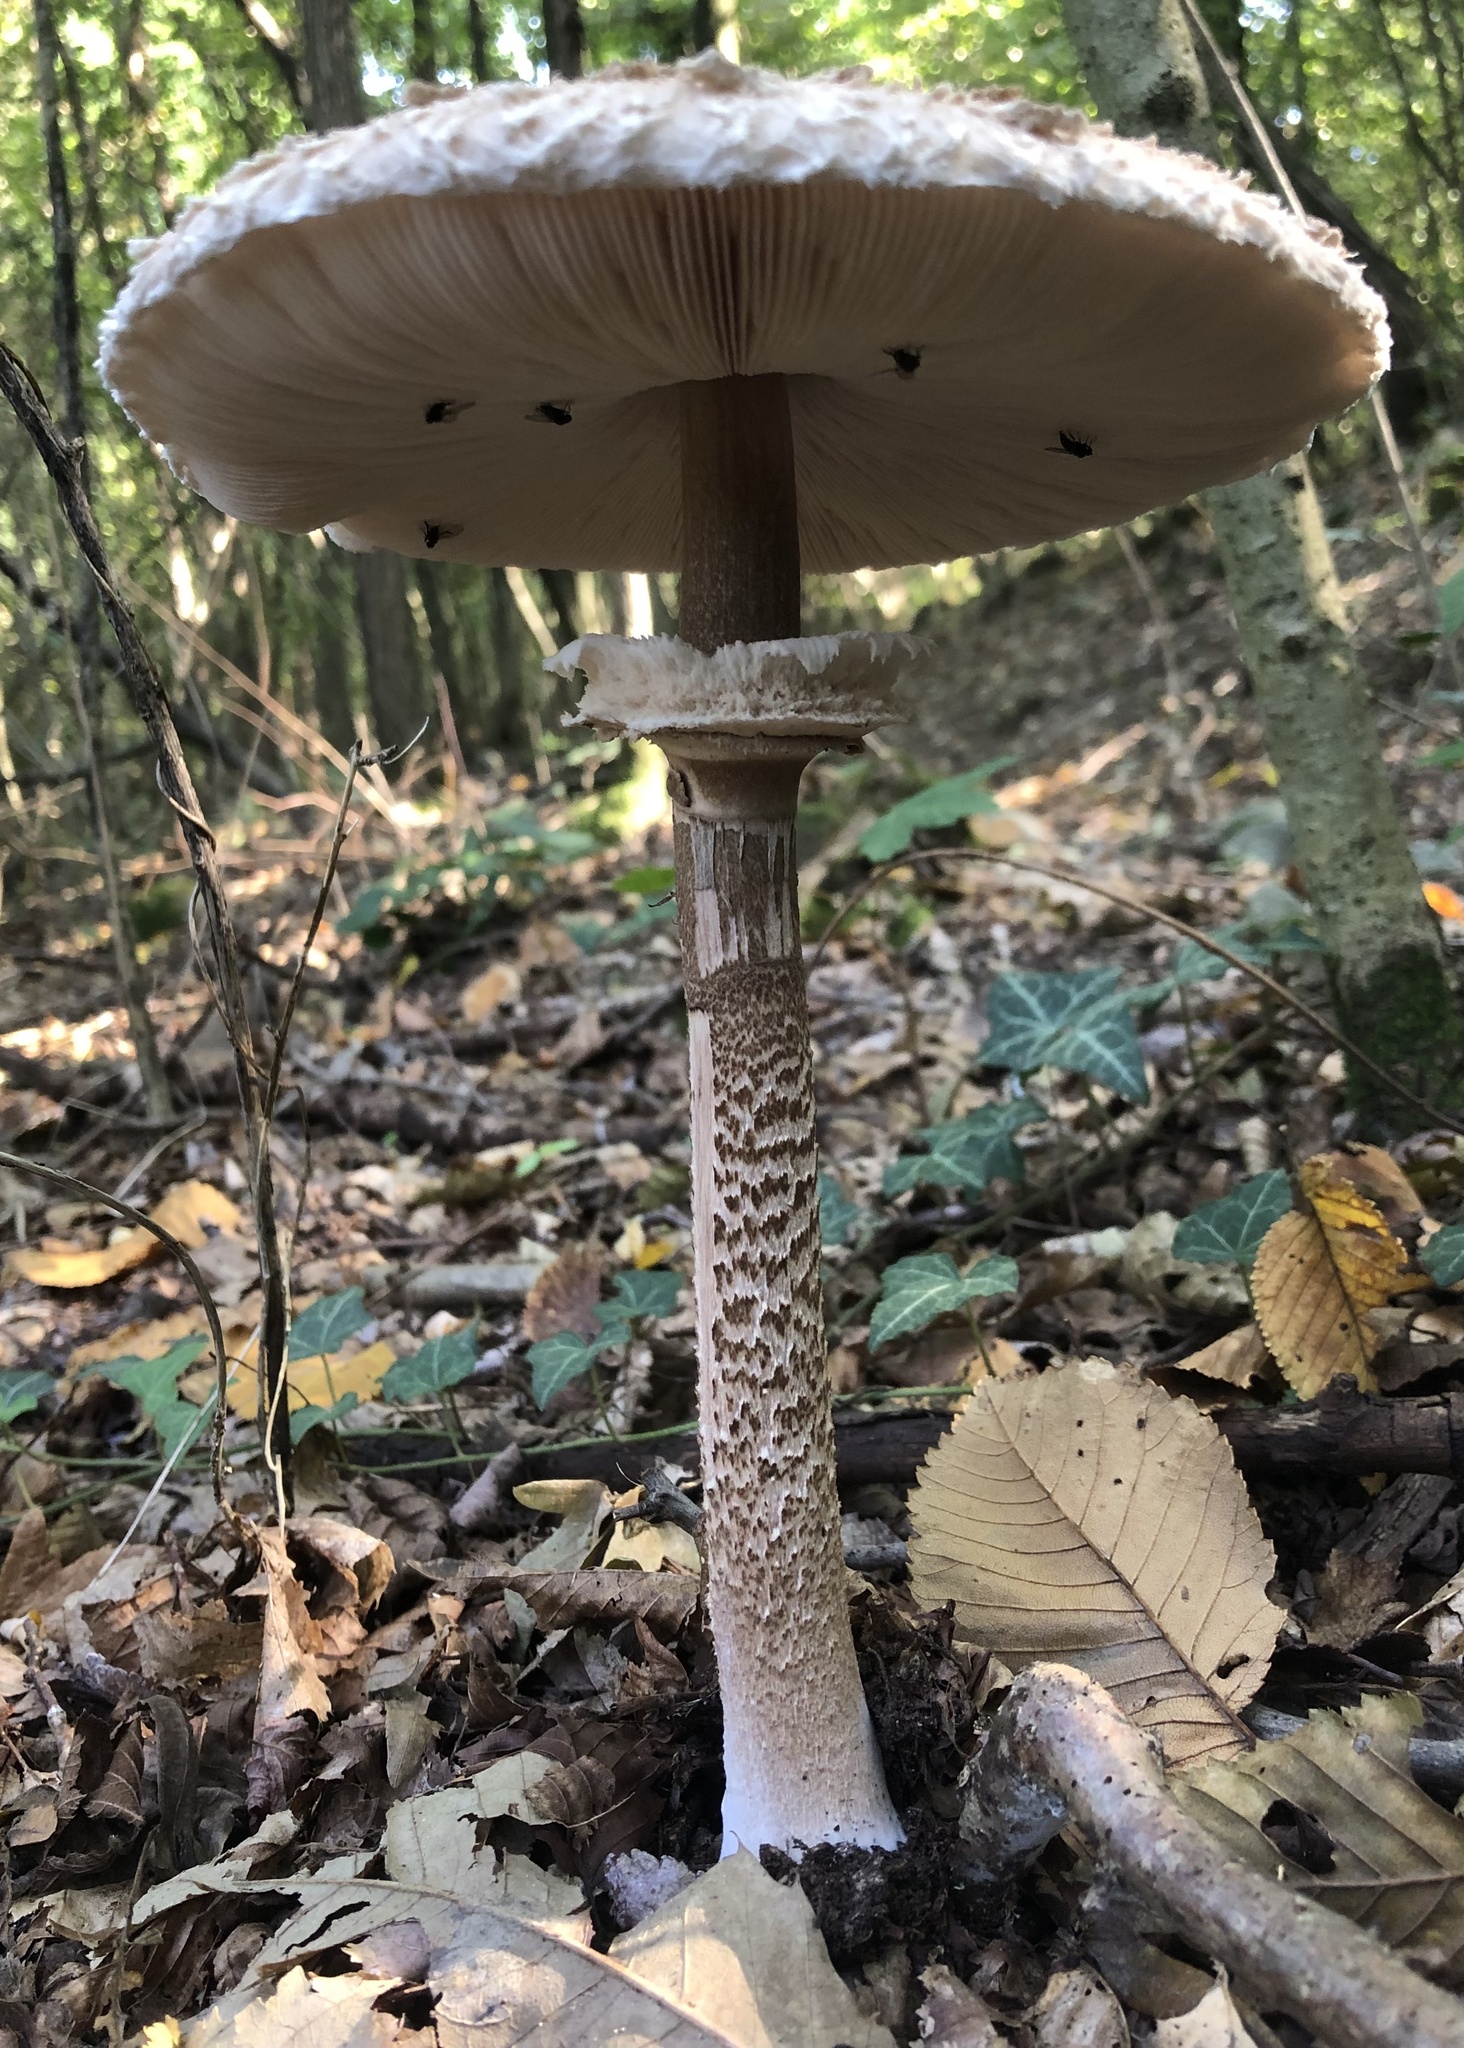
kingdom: Fungi
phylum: Basidiomycota
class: Agaricomycetes
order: Agaricales
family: Agaricaceae
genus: Macrolepiota
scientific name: Macrolepiota procera
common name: Parasol
